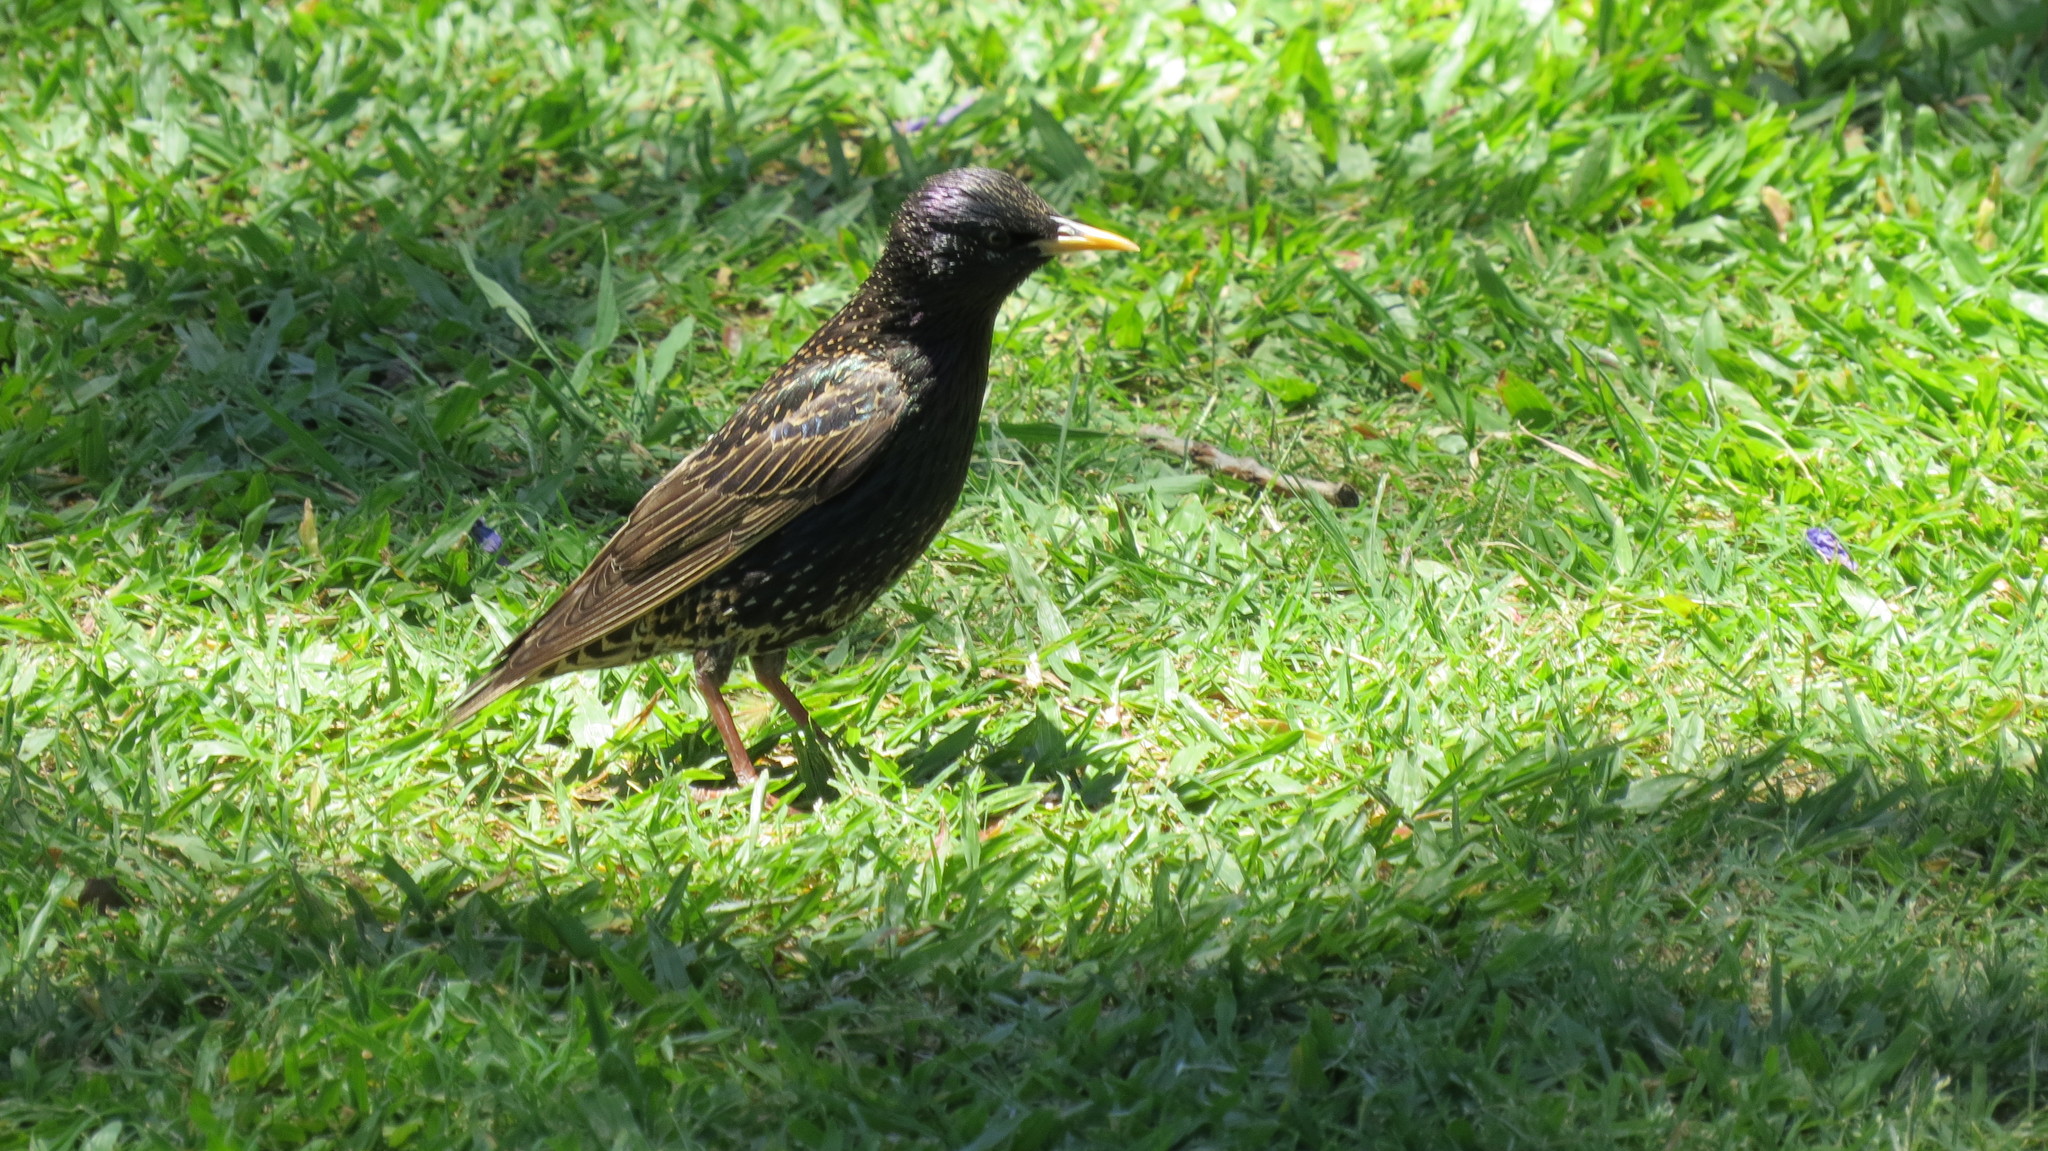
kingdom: Animalia
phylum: Chordata
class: Aves
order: Passeriformes
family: Sturnidae
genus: Sturnus
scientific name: Sturnus vulgaris
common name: Common starling
